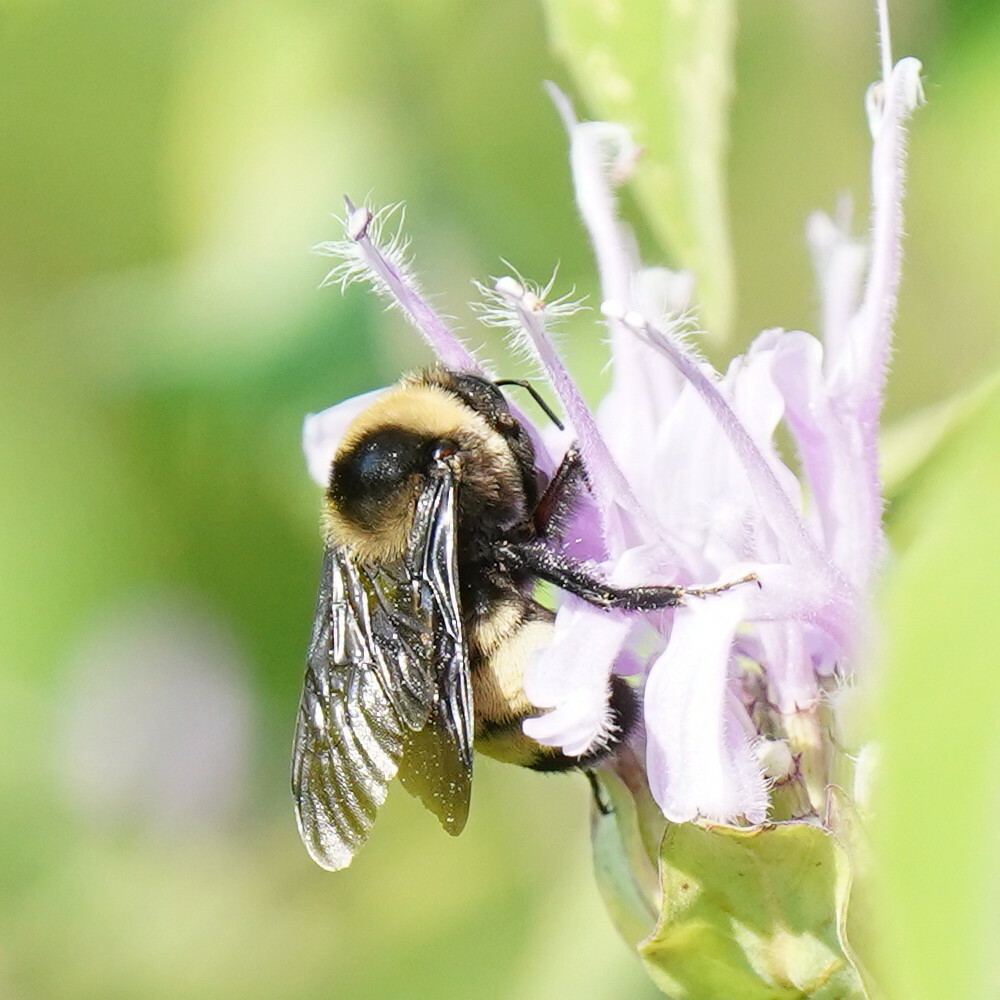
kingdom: Animalia
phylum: Arthropoda
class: Insecta
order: Hymenoptera
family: Apidae
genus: Bombus
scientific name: Bombus auricomus
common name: Black and gold bumble bee
